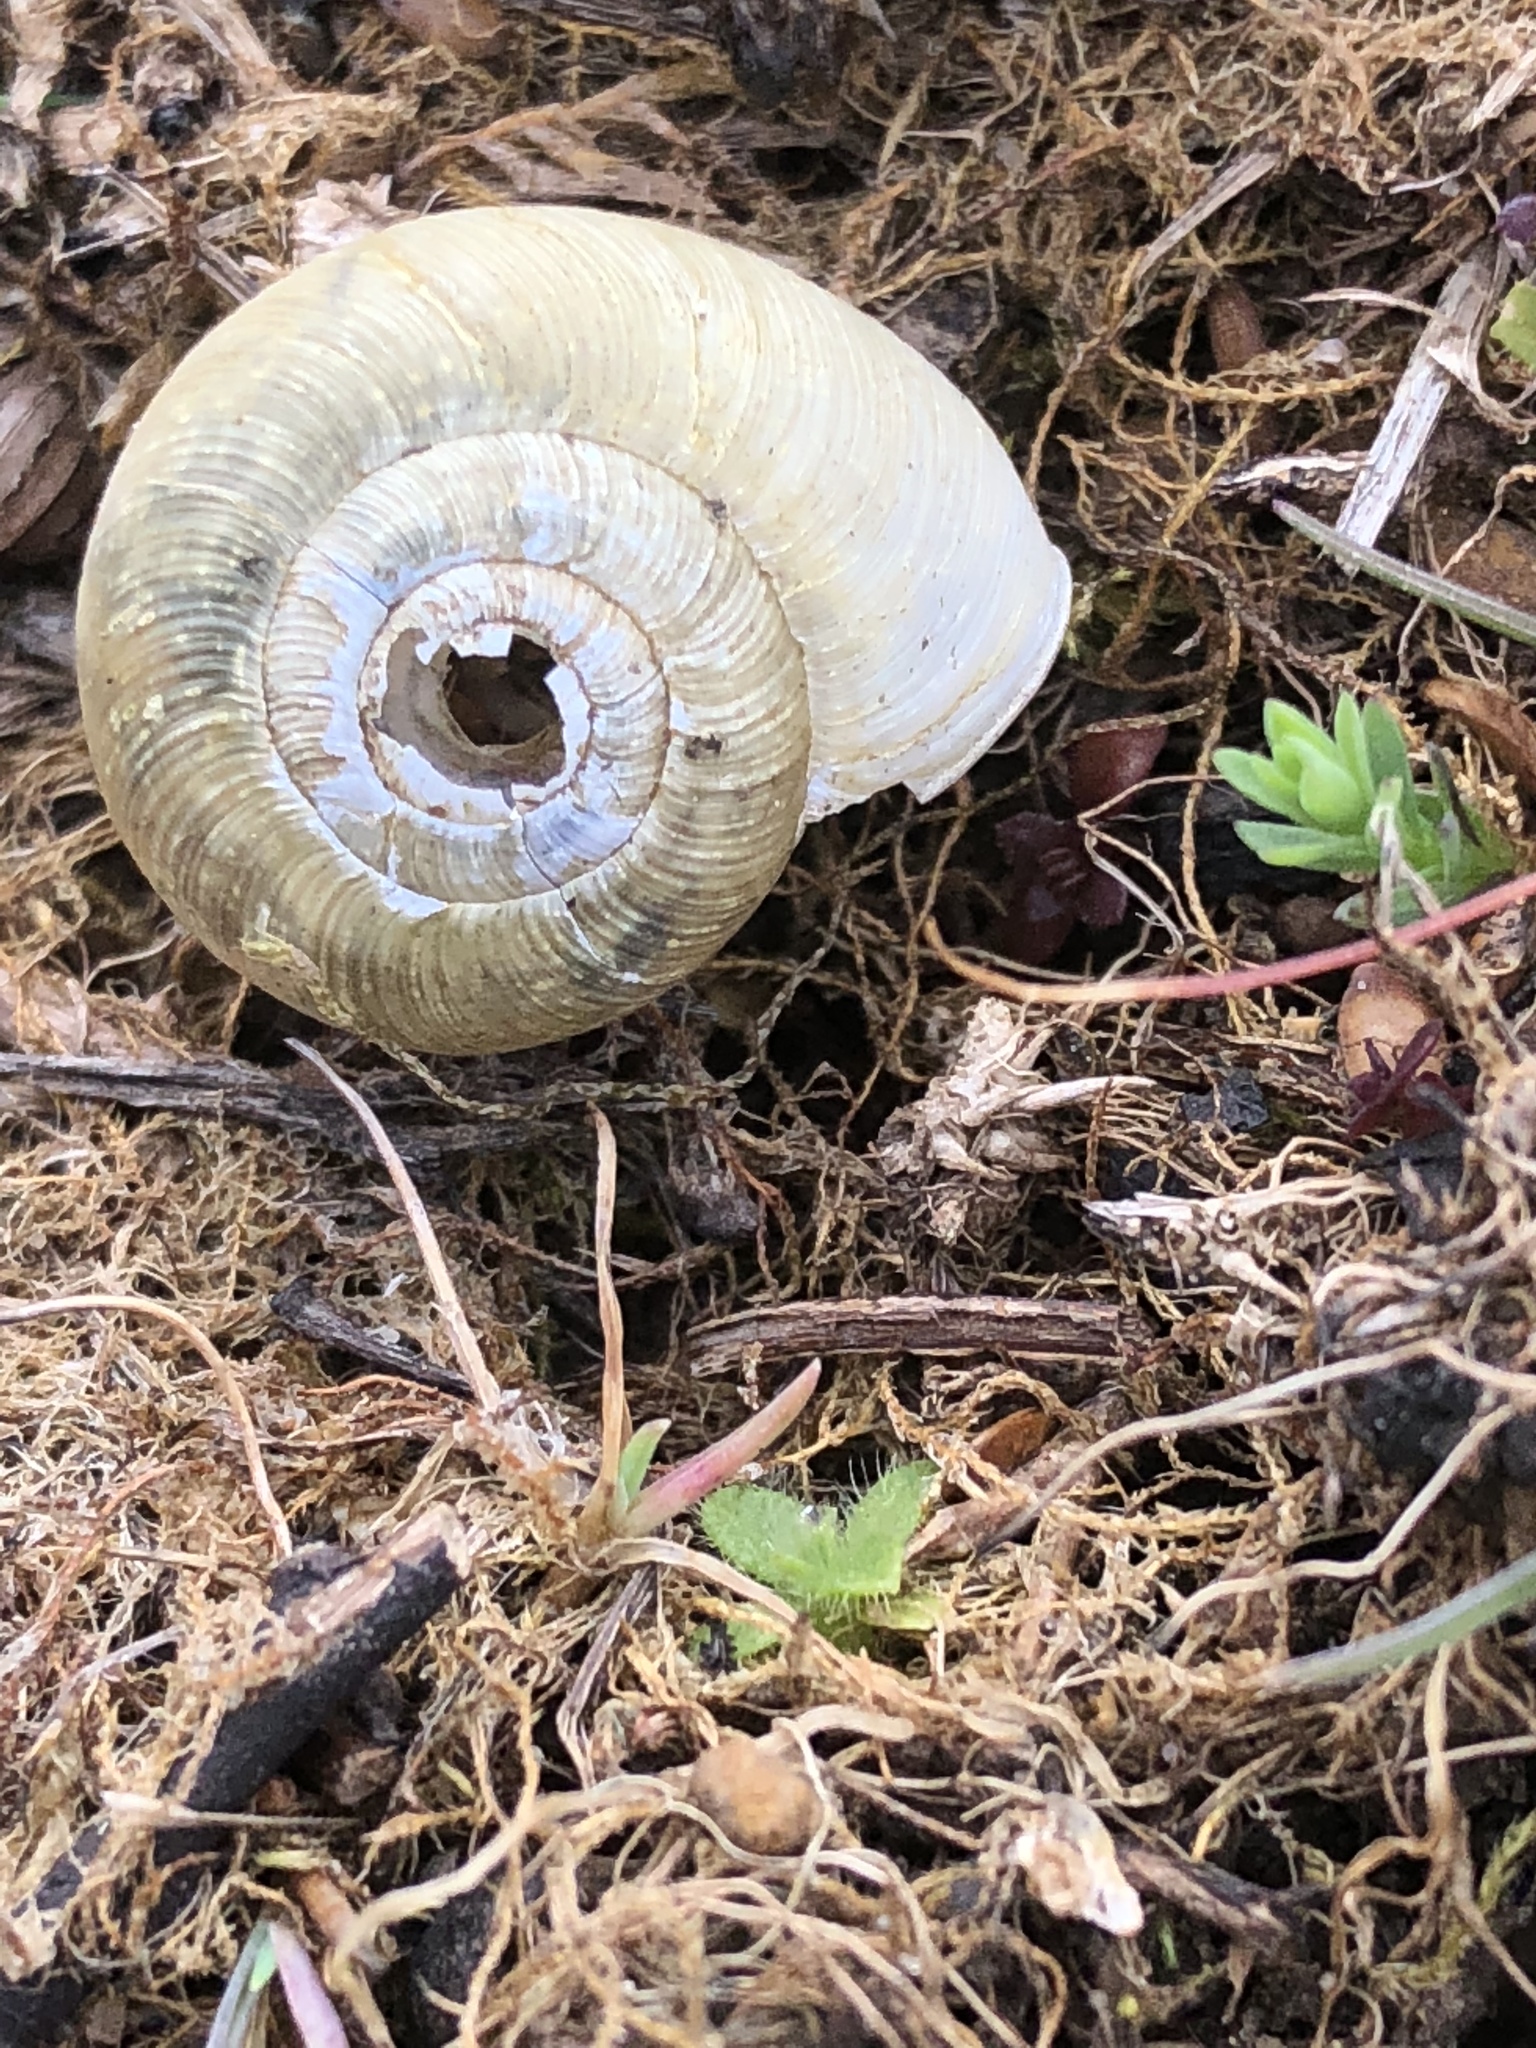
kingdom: Animalia
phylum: Mollusca
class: Gastropoda
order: Stylommatophora
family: Haplotrematidae
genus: Ancotrema
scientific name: Ancotrema sportella
